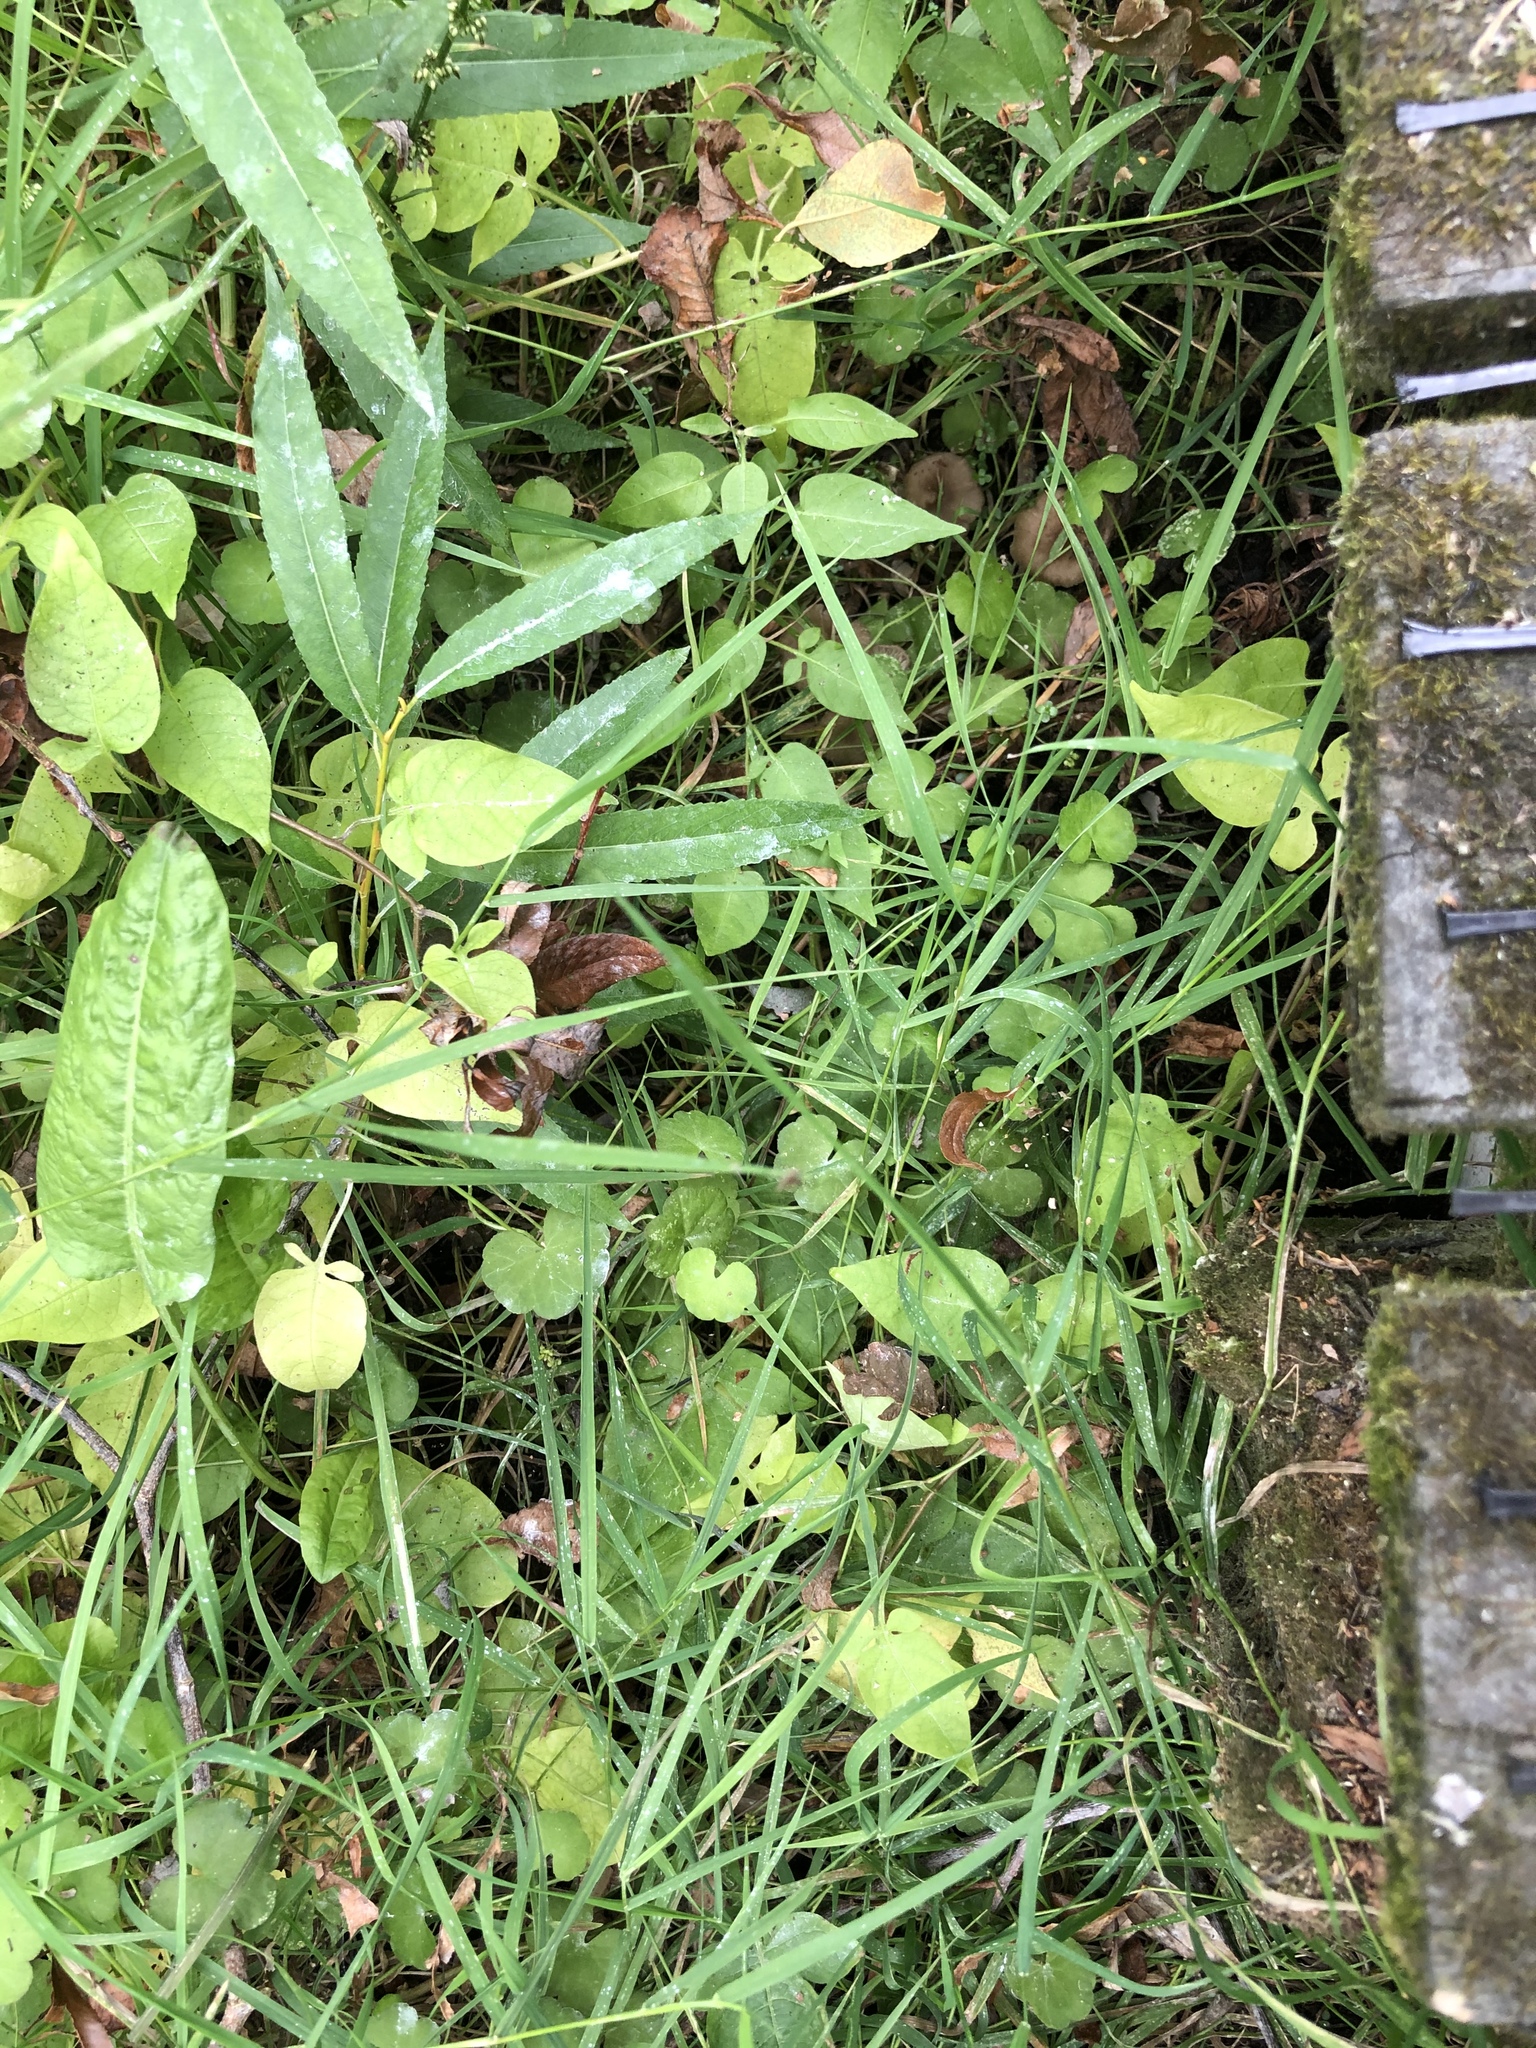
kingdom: Plantae
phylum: Tracheophyta
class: Magnoliopsida
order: Apiales
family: Araliaceae
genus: Hydrocotyle
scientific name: Hydrocotyle novae-zeelandiae
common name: New zealand pennywort
